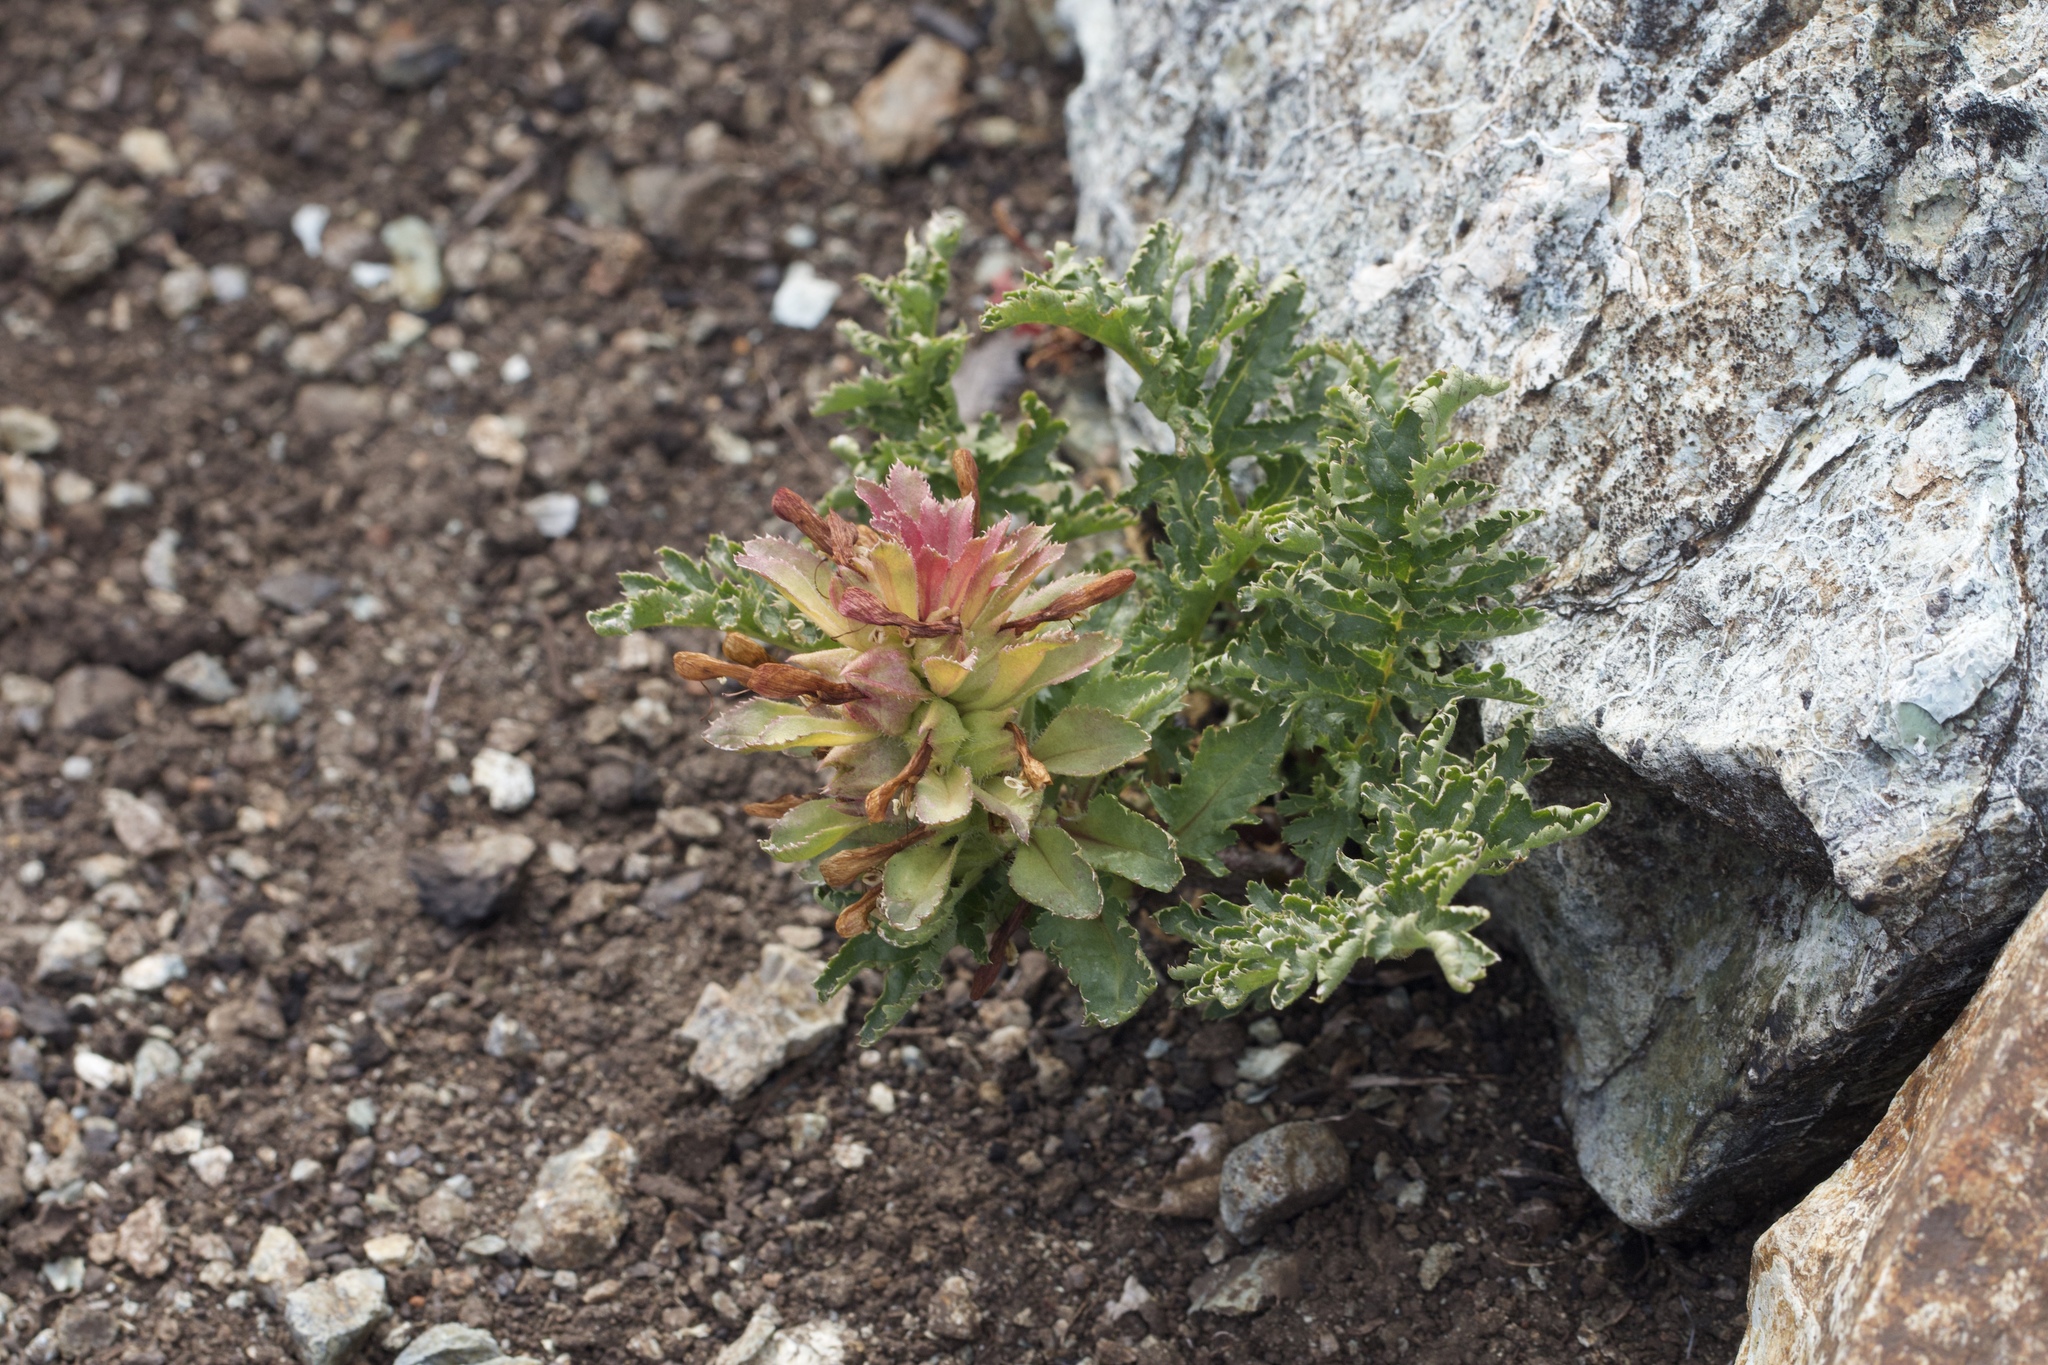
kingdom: Plantae
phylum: Tracheophyta
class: Magnoliopsida
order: Lamiales
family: Orobanchaceae
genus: Pedicularis
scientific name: Pedicularis densiflora
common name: Indian warrior
